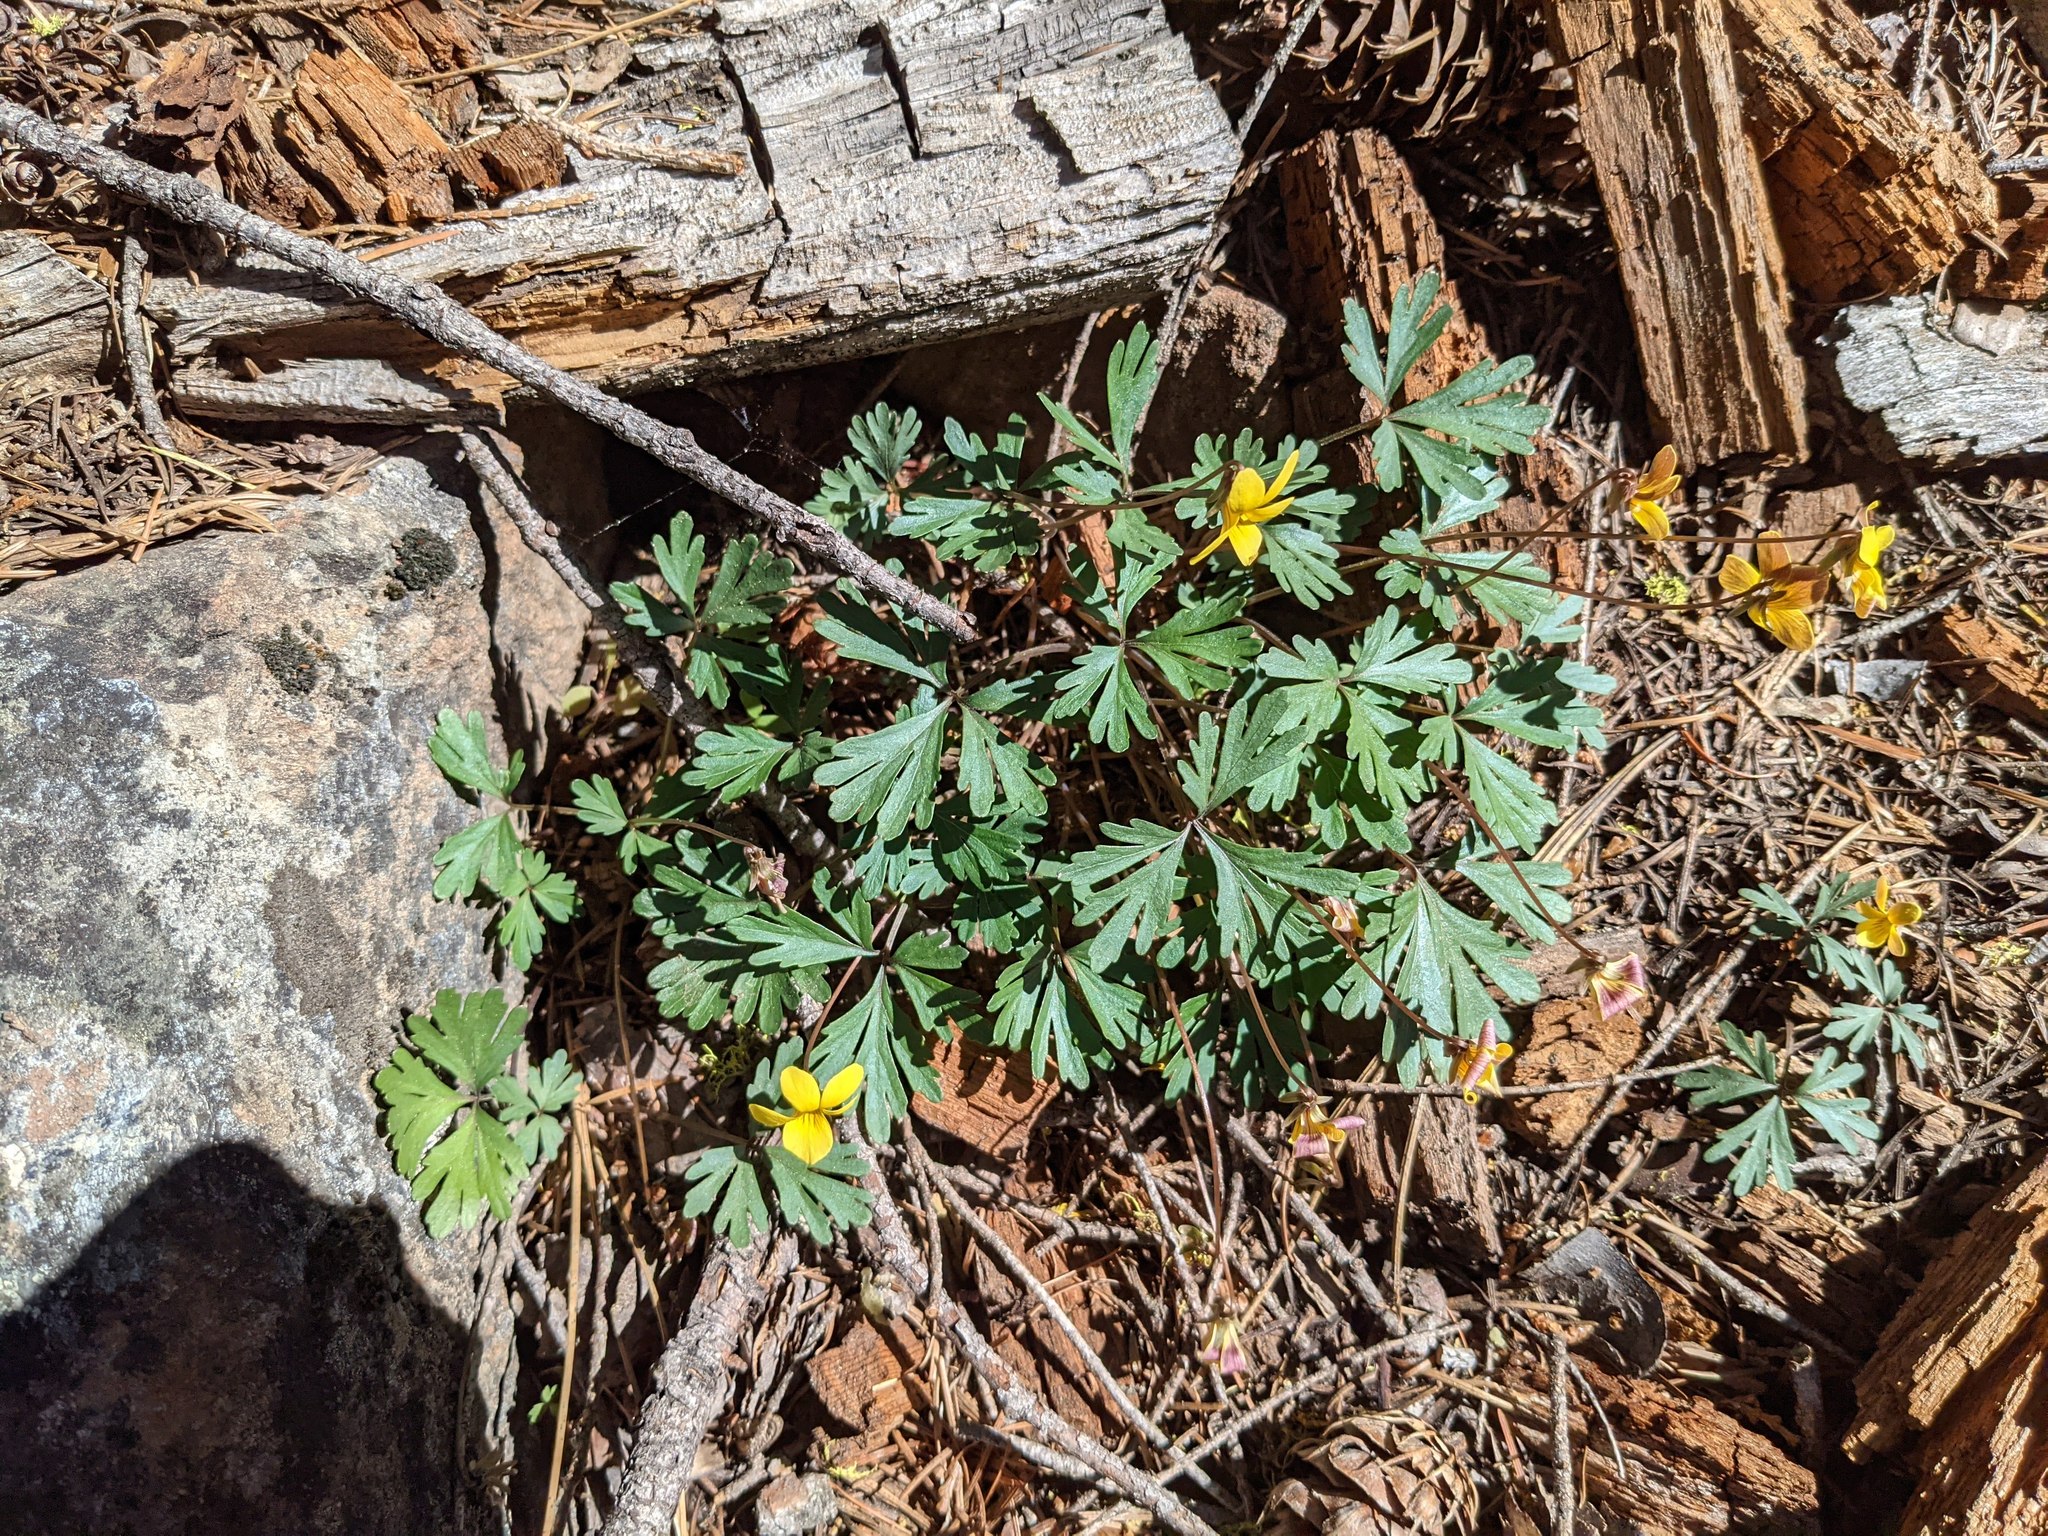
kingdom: Plantae
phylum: Tracheophyta
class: Magnoliopsida
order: Malpighiales
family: Violaceae
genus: Viola
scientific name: Viola sheltonii
